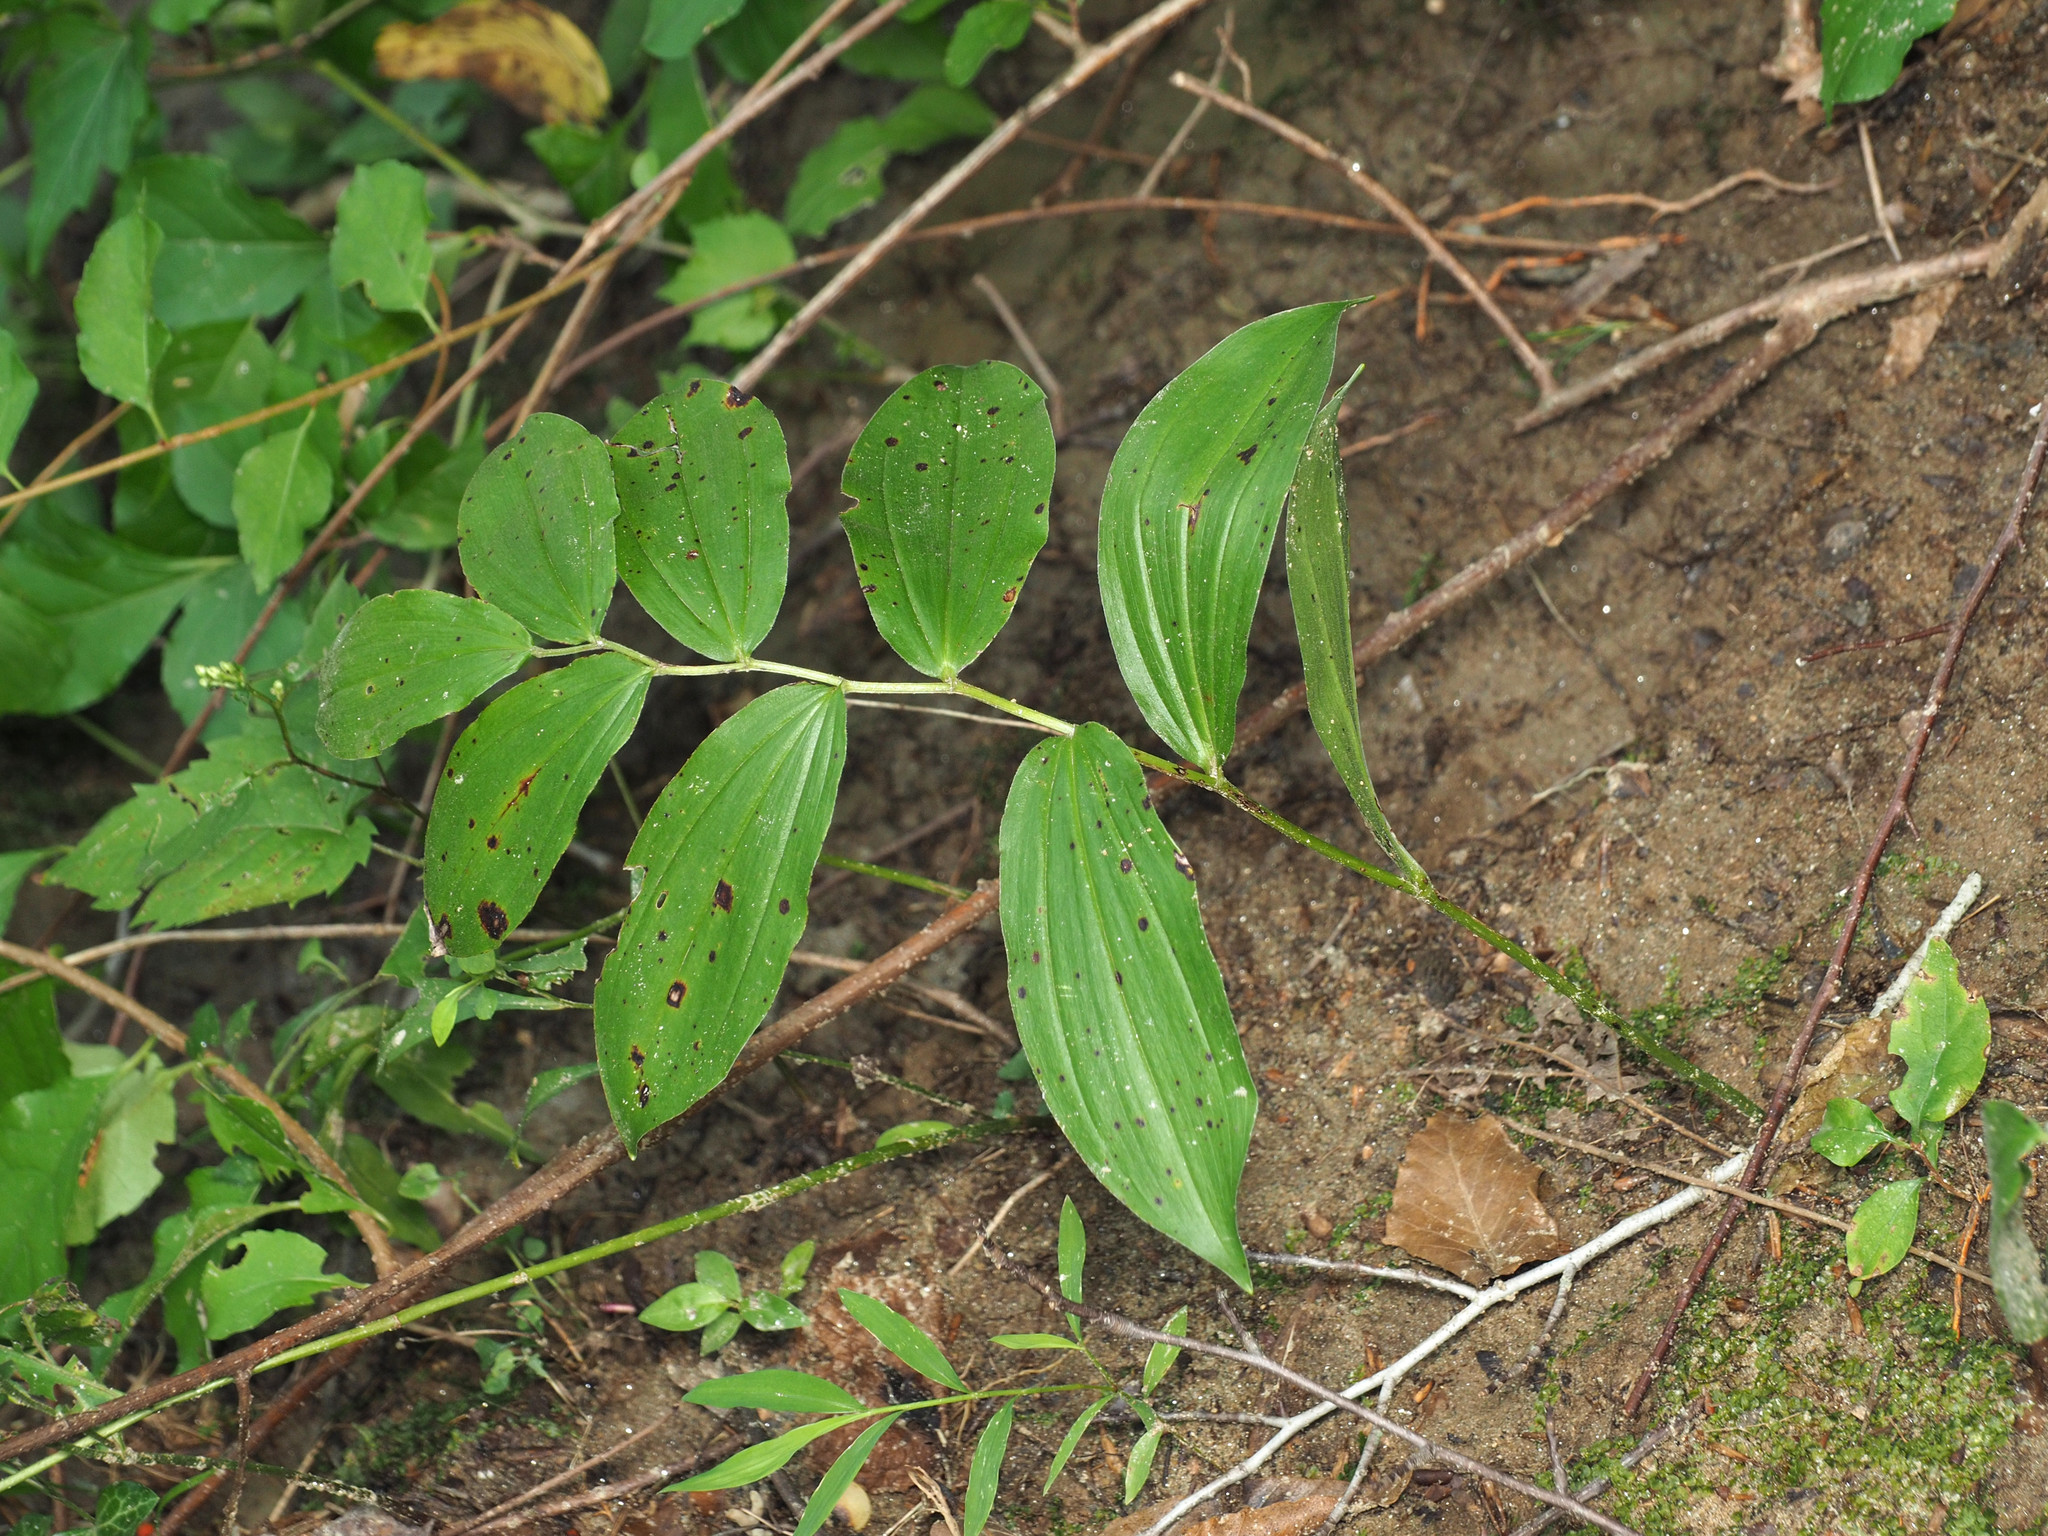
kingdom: Plantae
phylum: Tracheophyta
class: Liliopsida
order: Asparagales
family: Asparagaceae
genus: Maianthemum
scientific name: Maianthemum racemosum
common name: False spikenard
